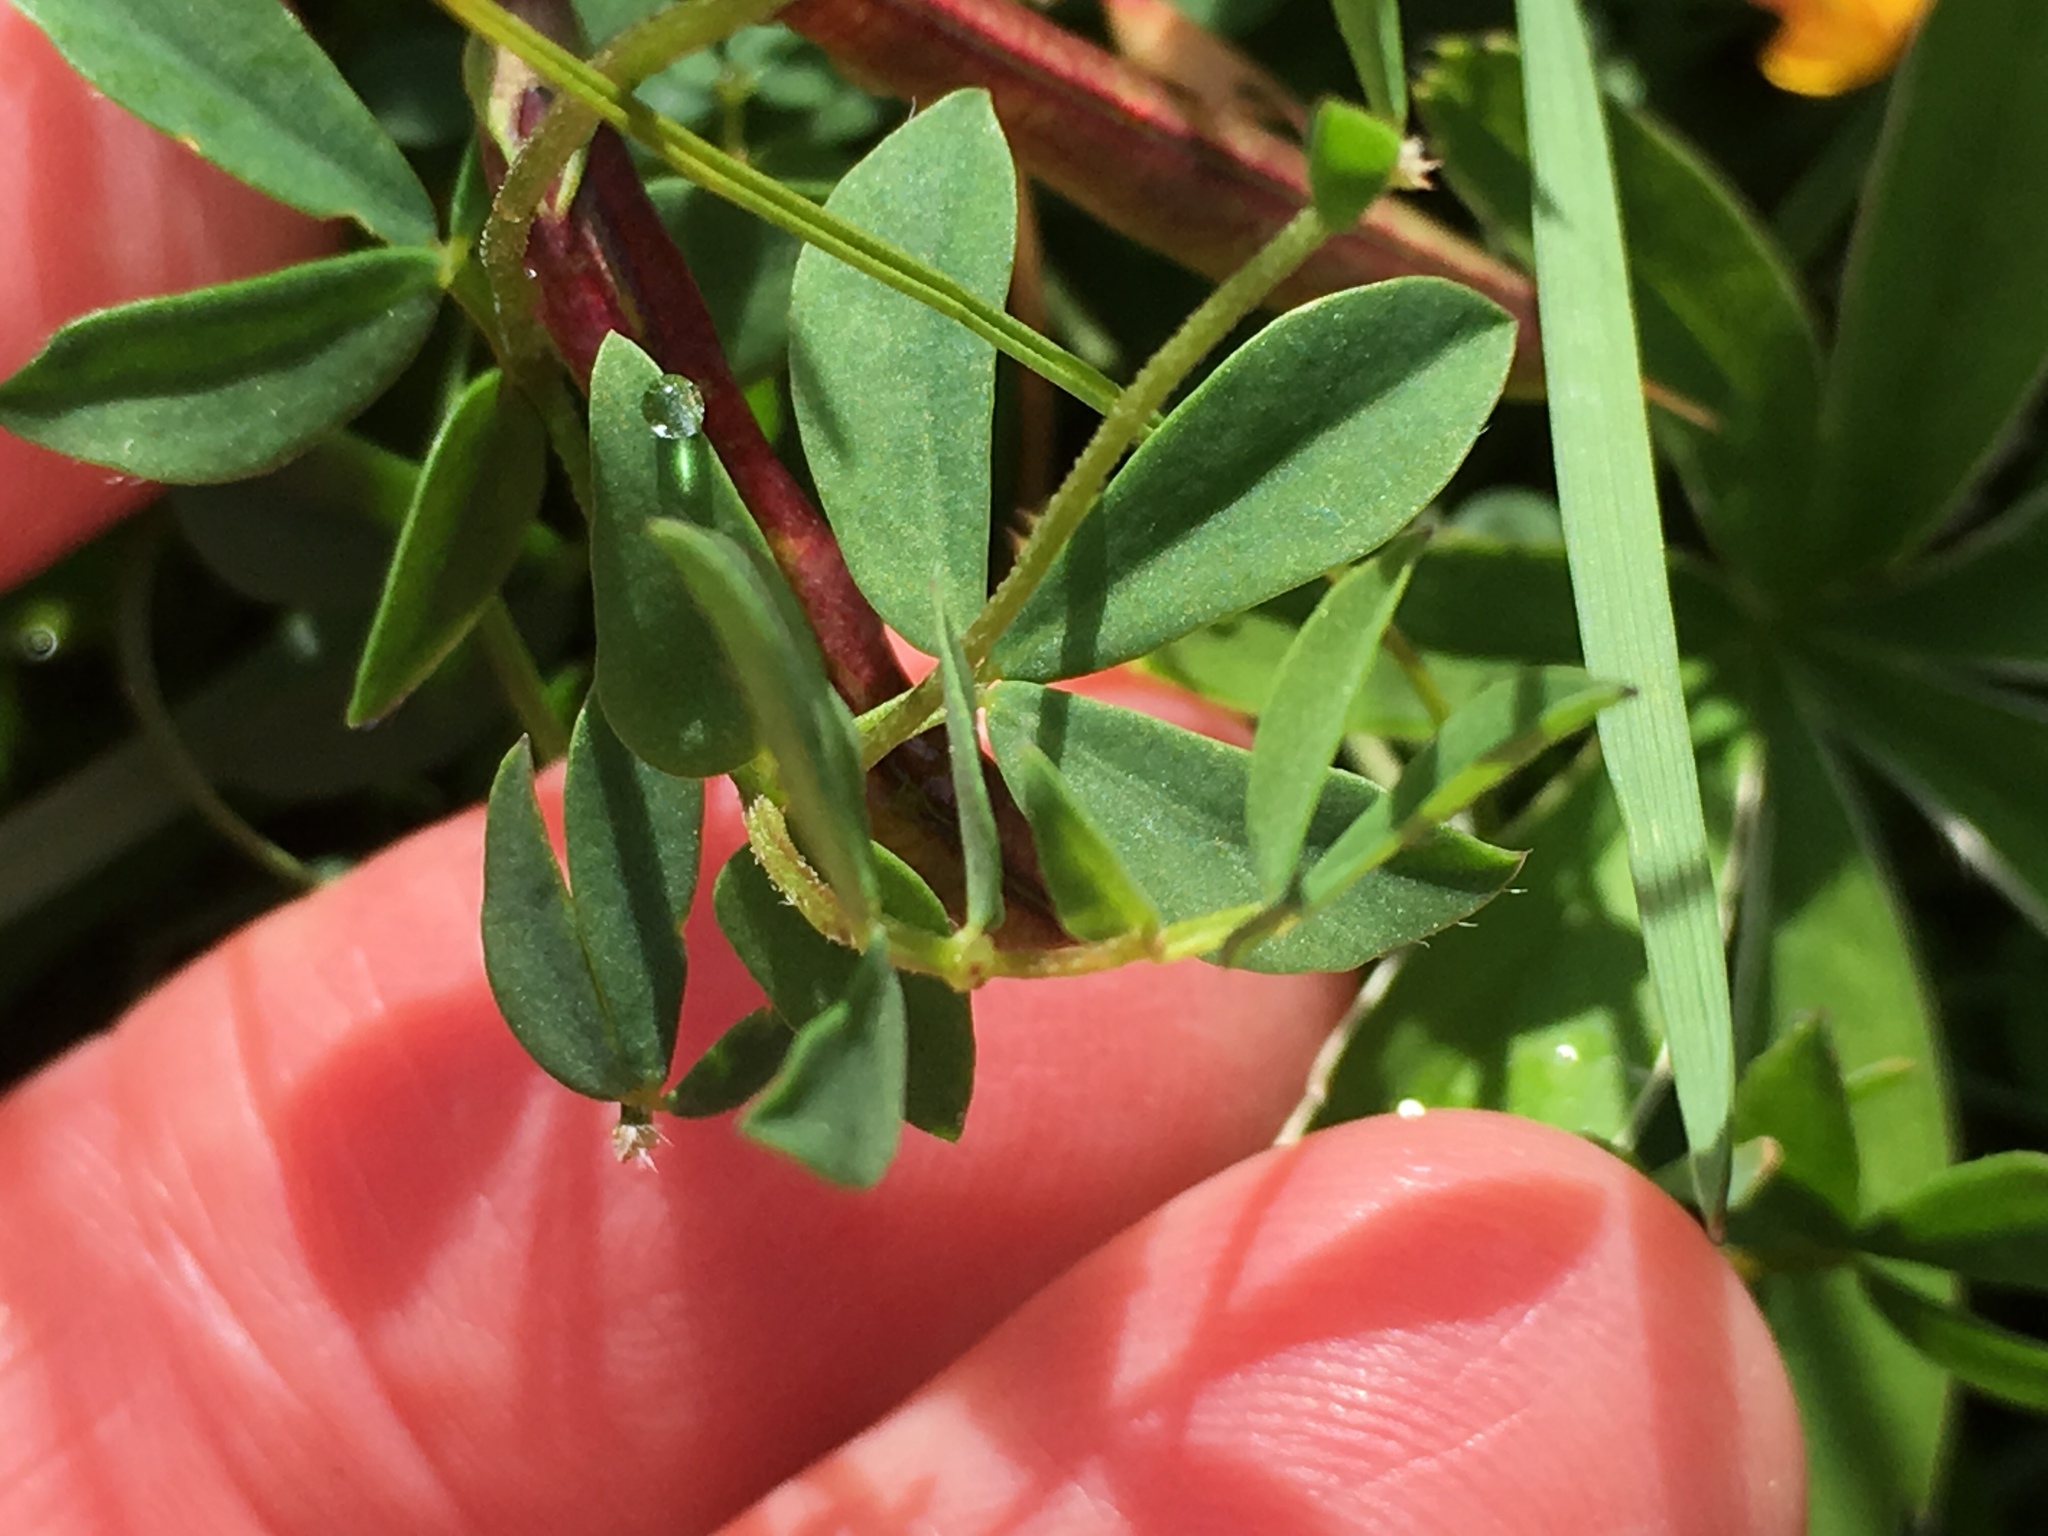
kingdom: Plantae
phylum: Tracheophyta
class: Magnoliopsida
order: Fabales
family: Fabaceae
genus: Lotus
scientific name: Lotus corniculatus
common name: Common bird's-foot-trefoil
